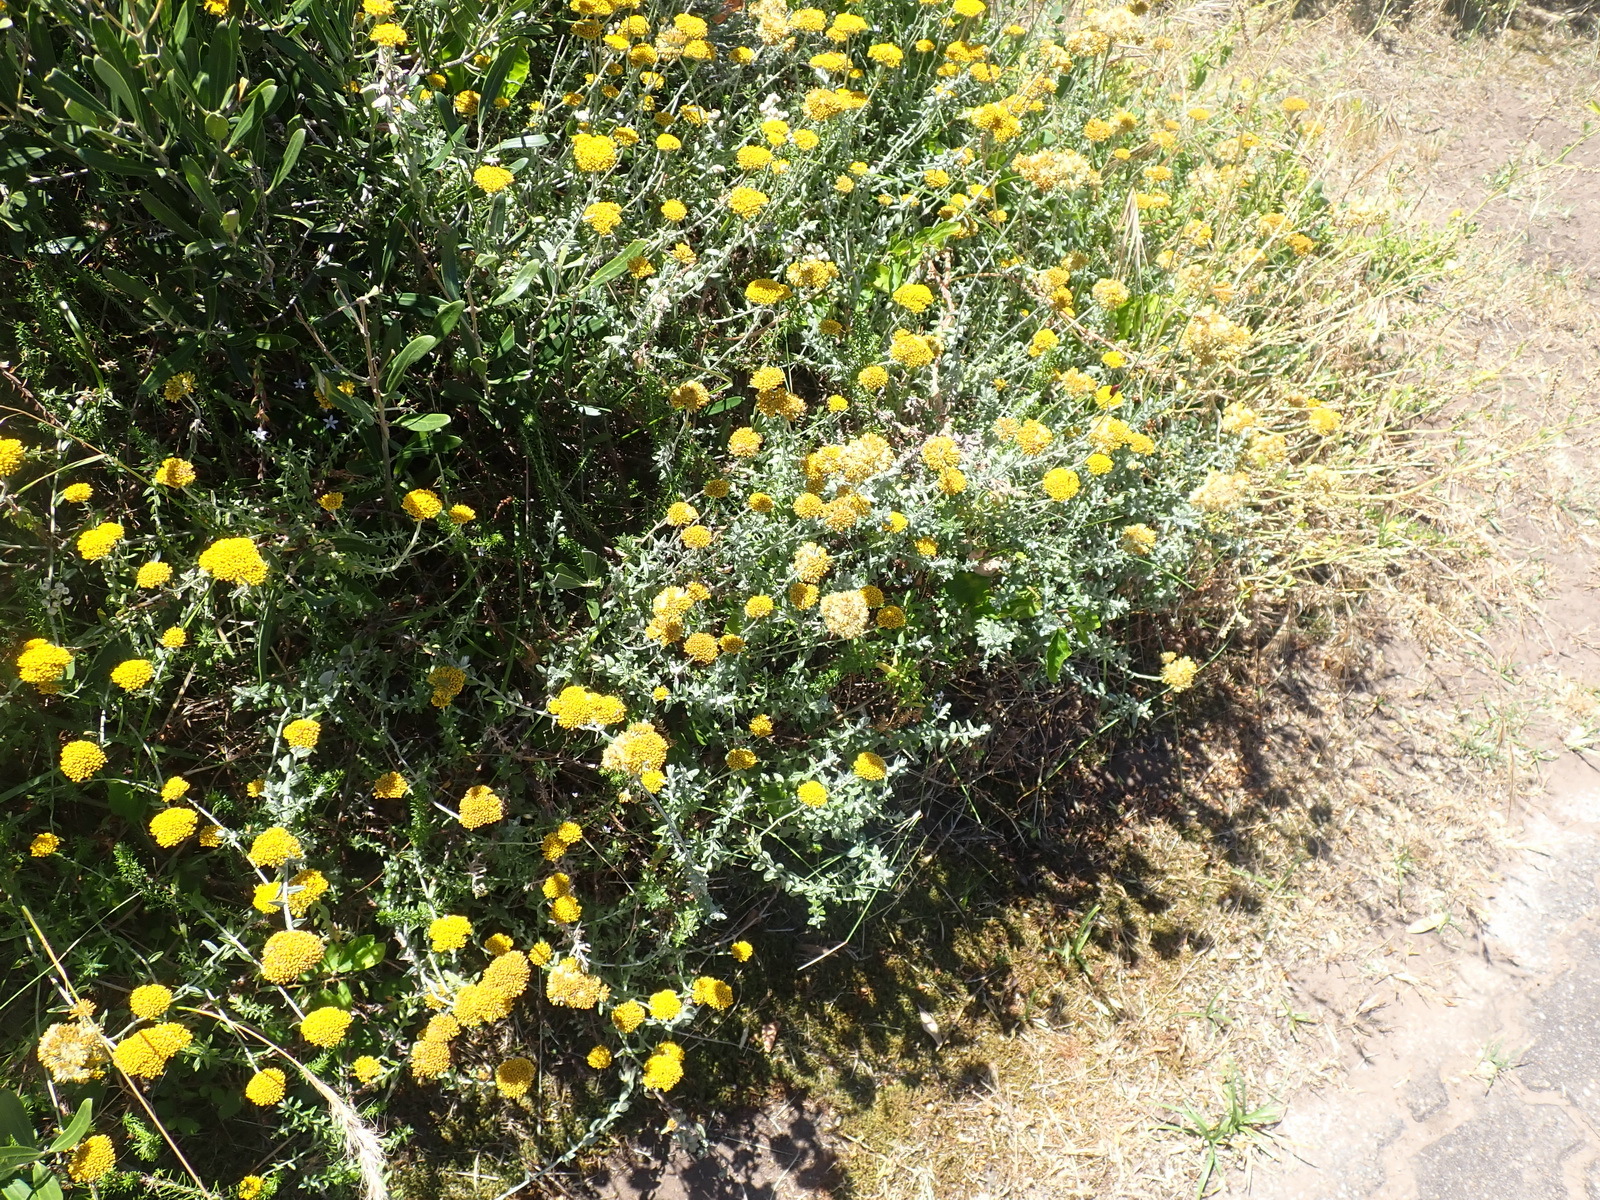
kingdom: Plantae
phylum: Tracheophyta
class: Magnoliopsida
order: Asterales
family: Asteraceae
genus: Helichrysum
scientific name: Helichrysum cymosum
